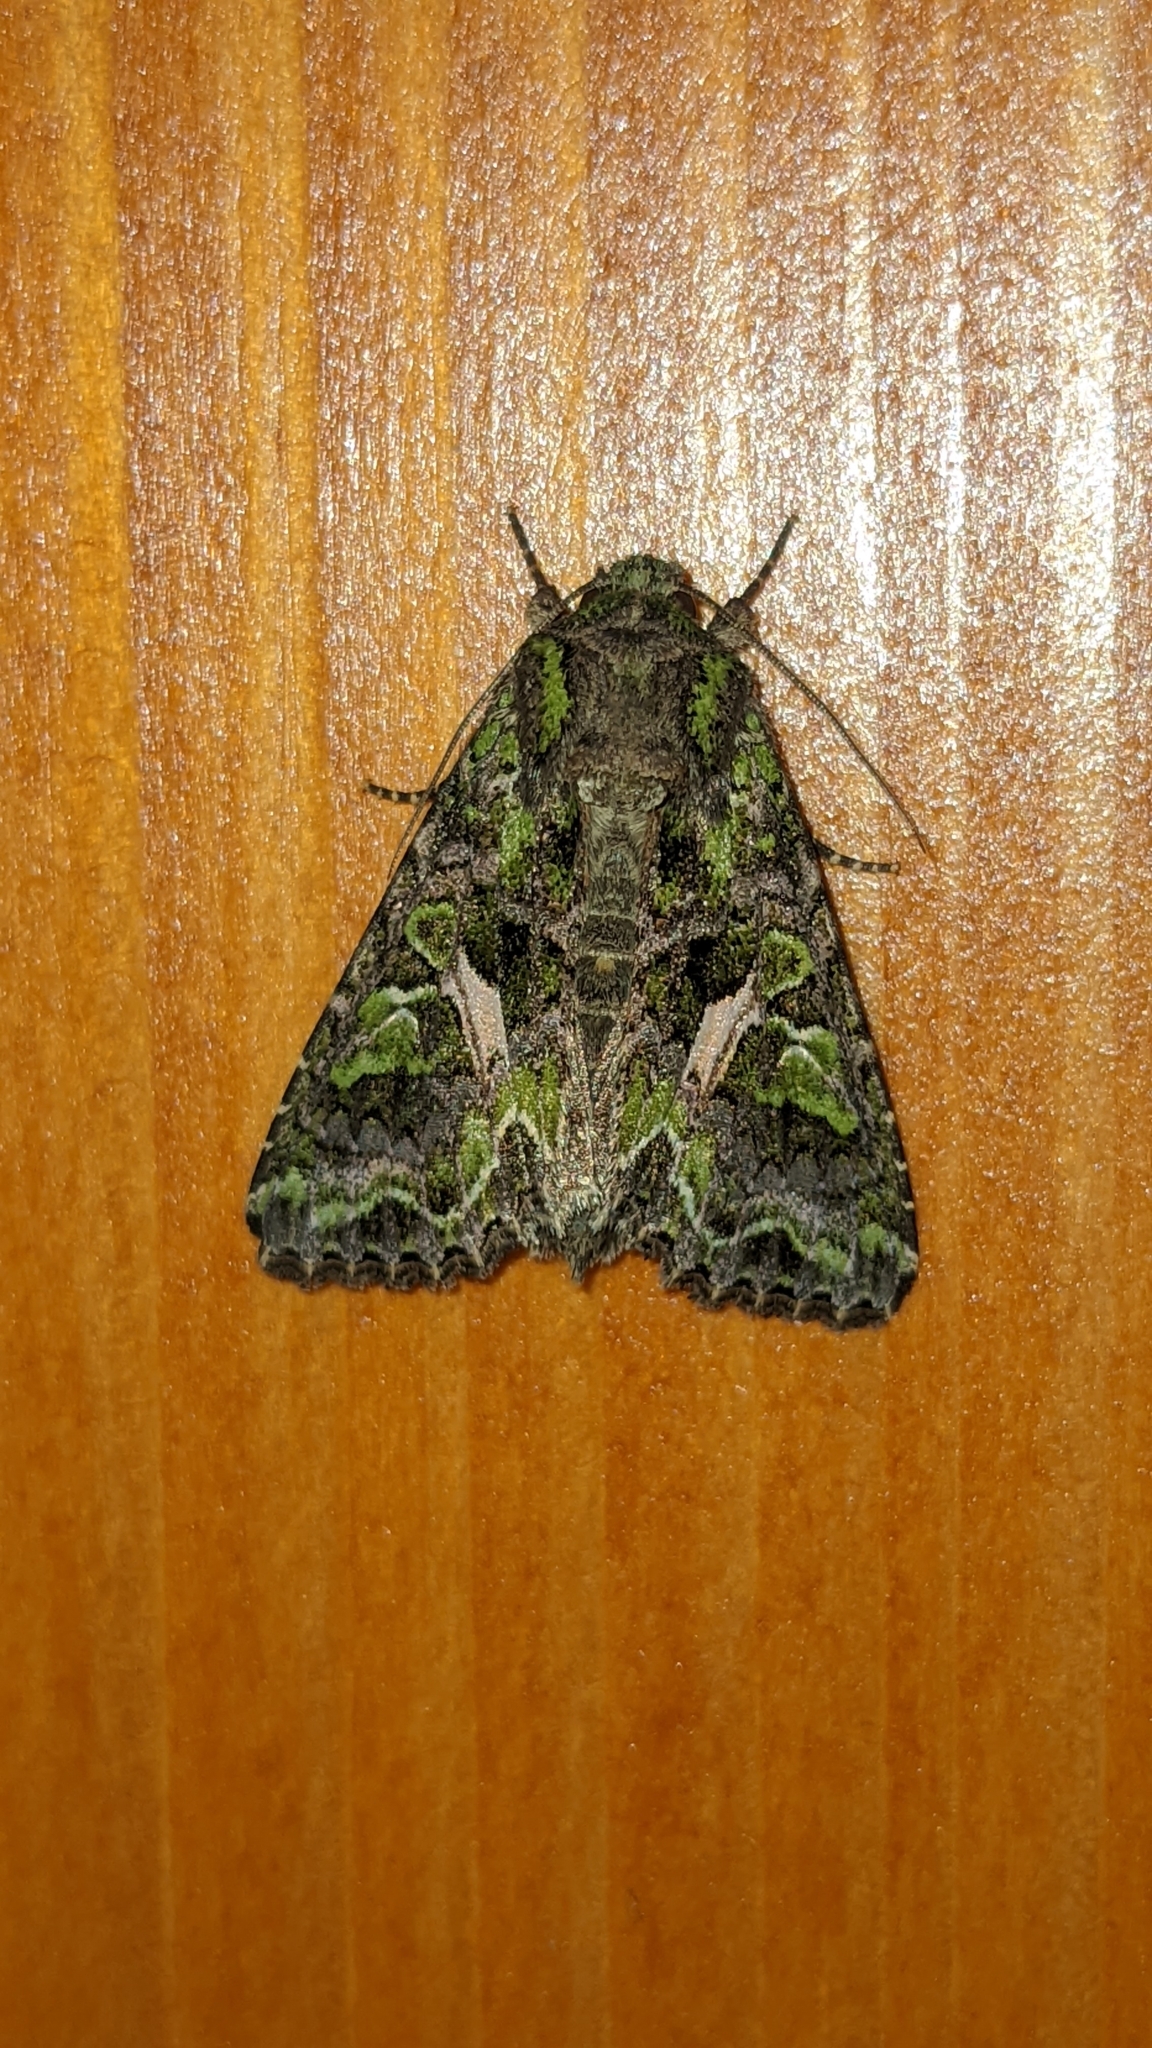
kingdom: Animalia
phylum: Arthropoda
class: Insecta
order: Lepidoptera
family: Noctuidae
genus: Trachea
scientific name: Trachea atriplicis
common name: Orache moth
